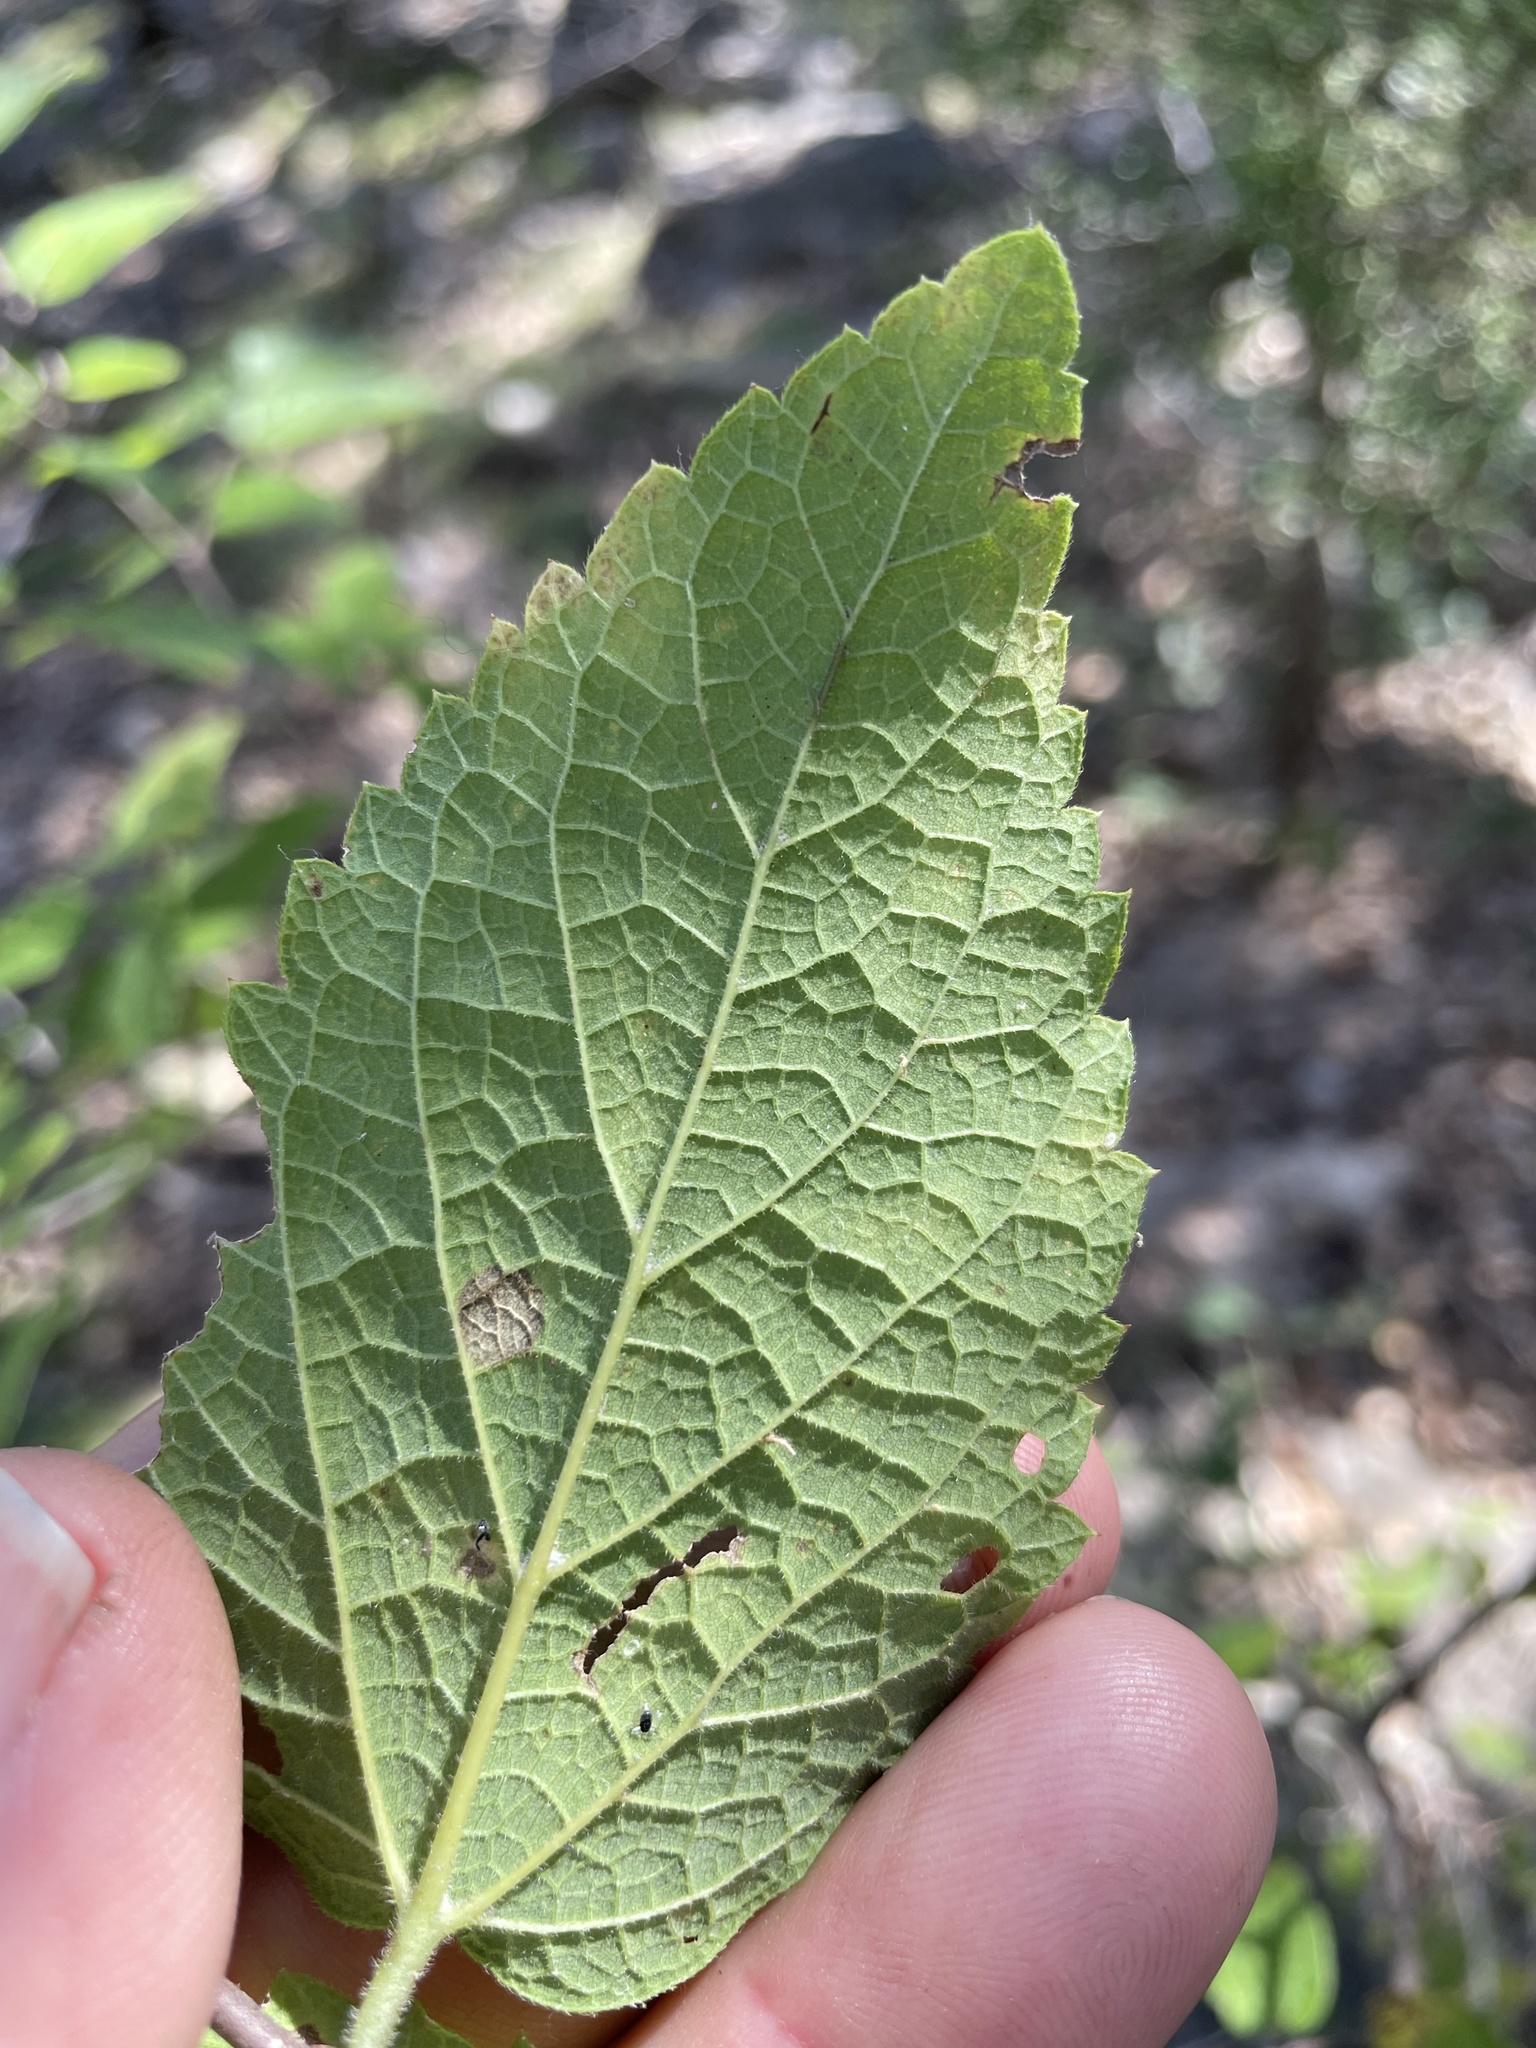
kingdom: Plantae
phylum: Tracheophyta
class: Magnoliopsida
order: Rosales
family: Cannabaceae
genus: Celtis
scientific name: Celtis reticulata
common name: Netleaf hackberry
